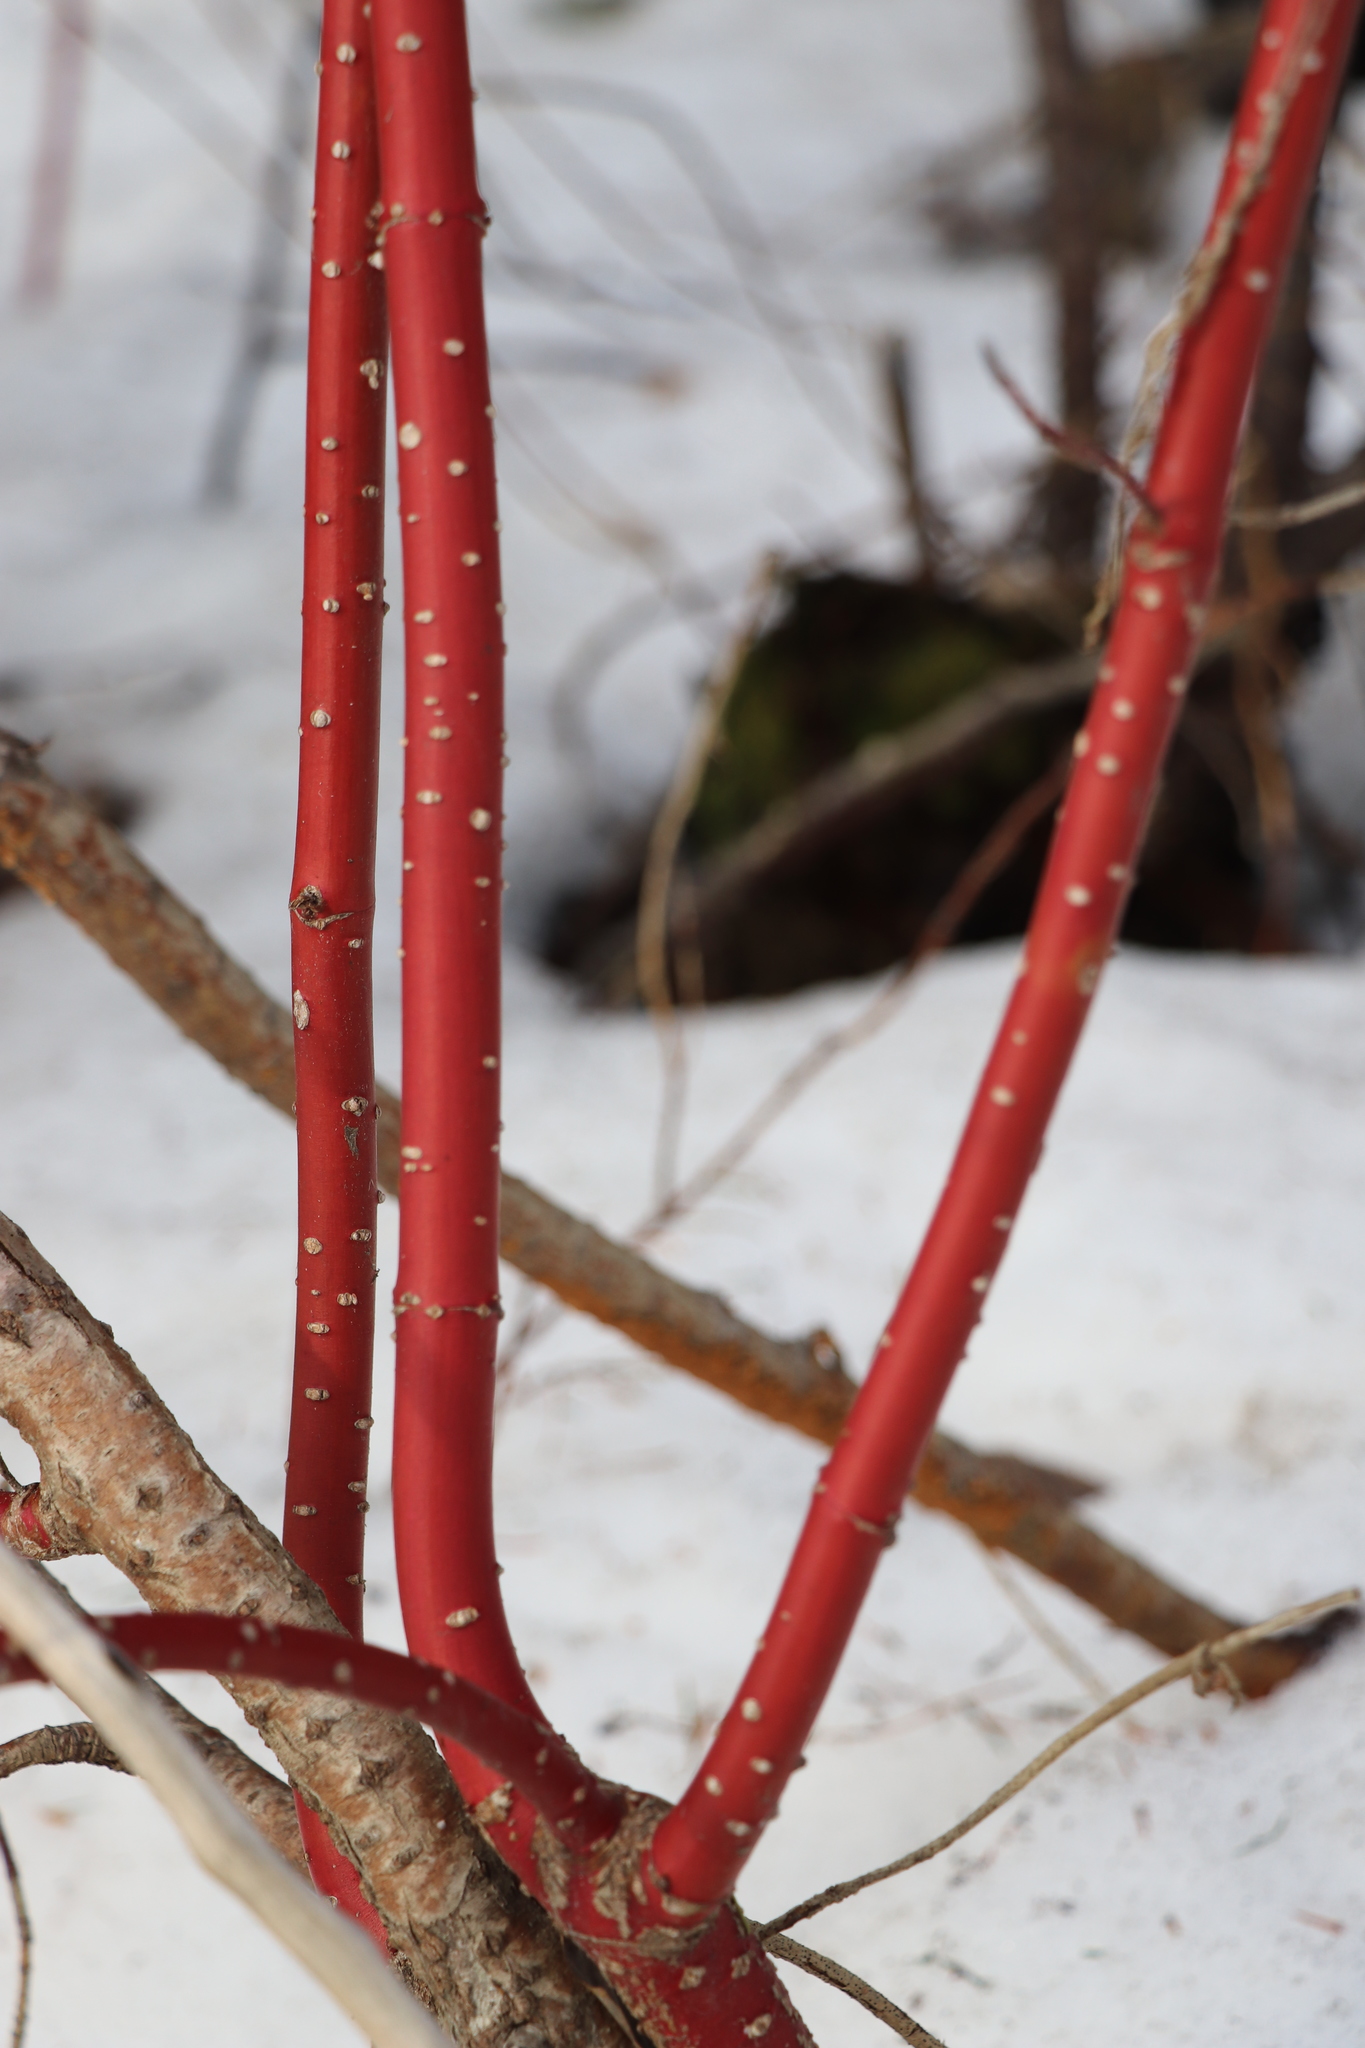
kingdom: Plantae
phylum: Tracheophyta
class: Magnoliopsida
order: Cornales
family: Cornaceae
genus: Cornus
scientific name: Cornus alba
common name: White dogwood
